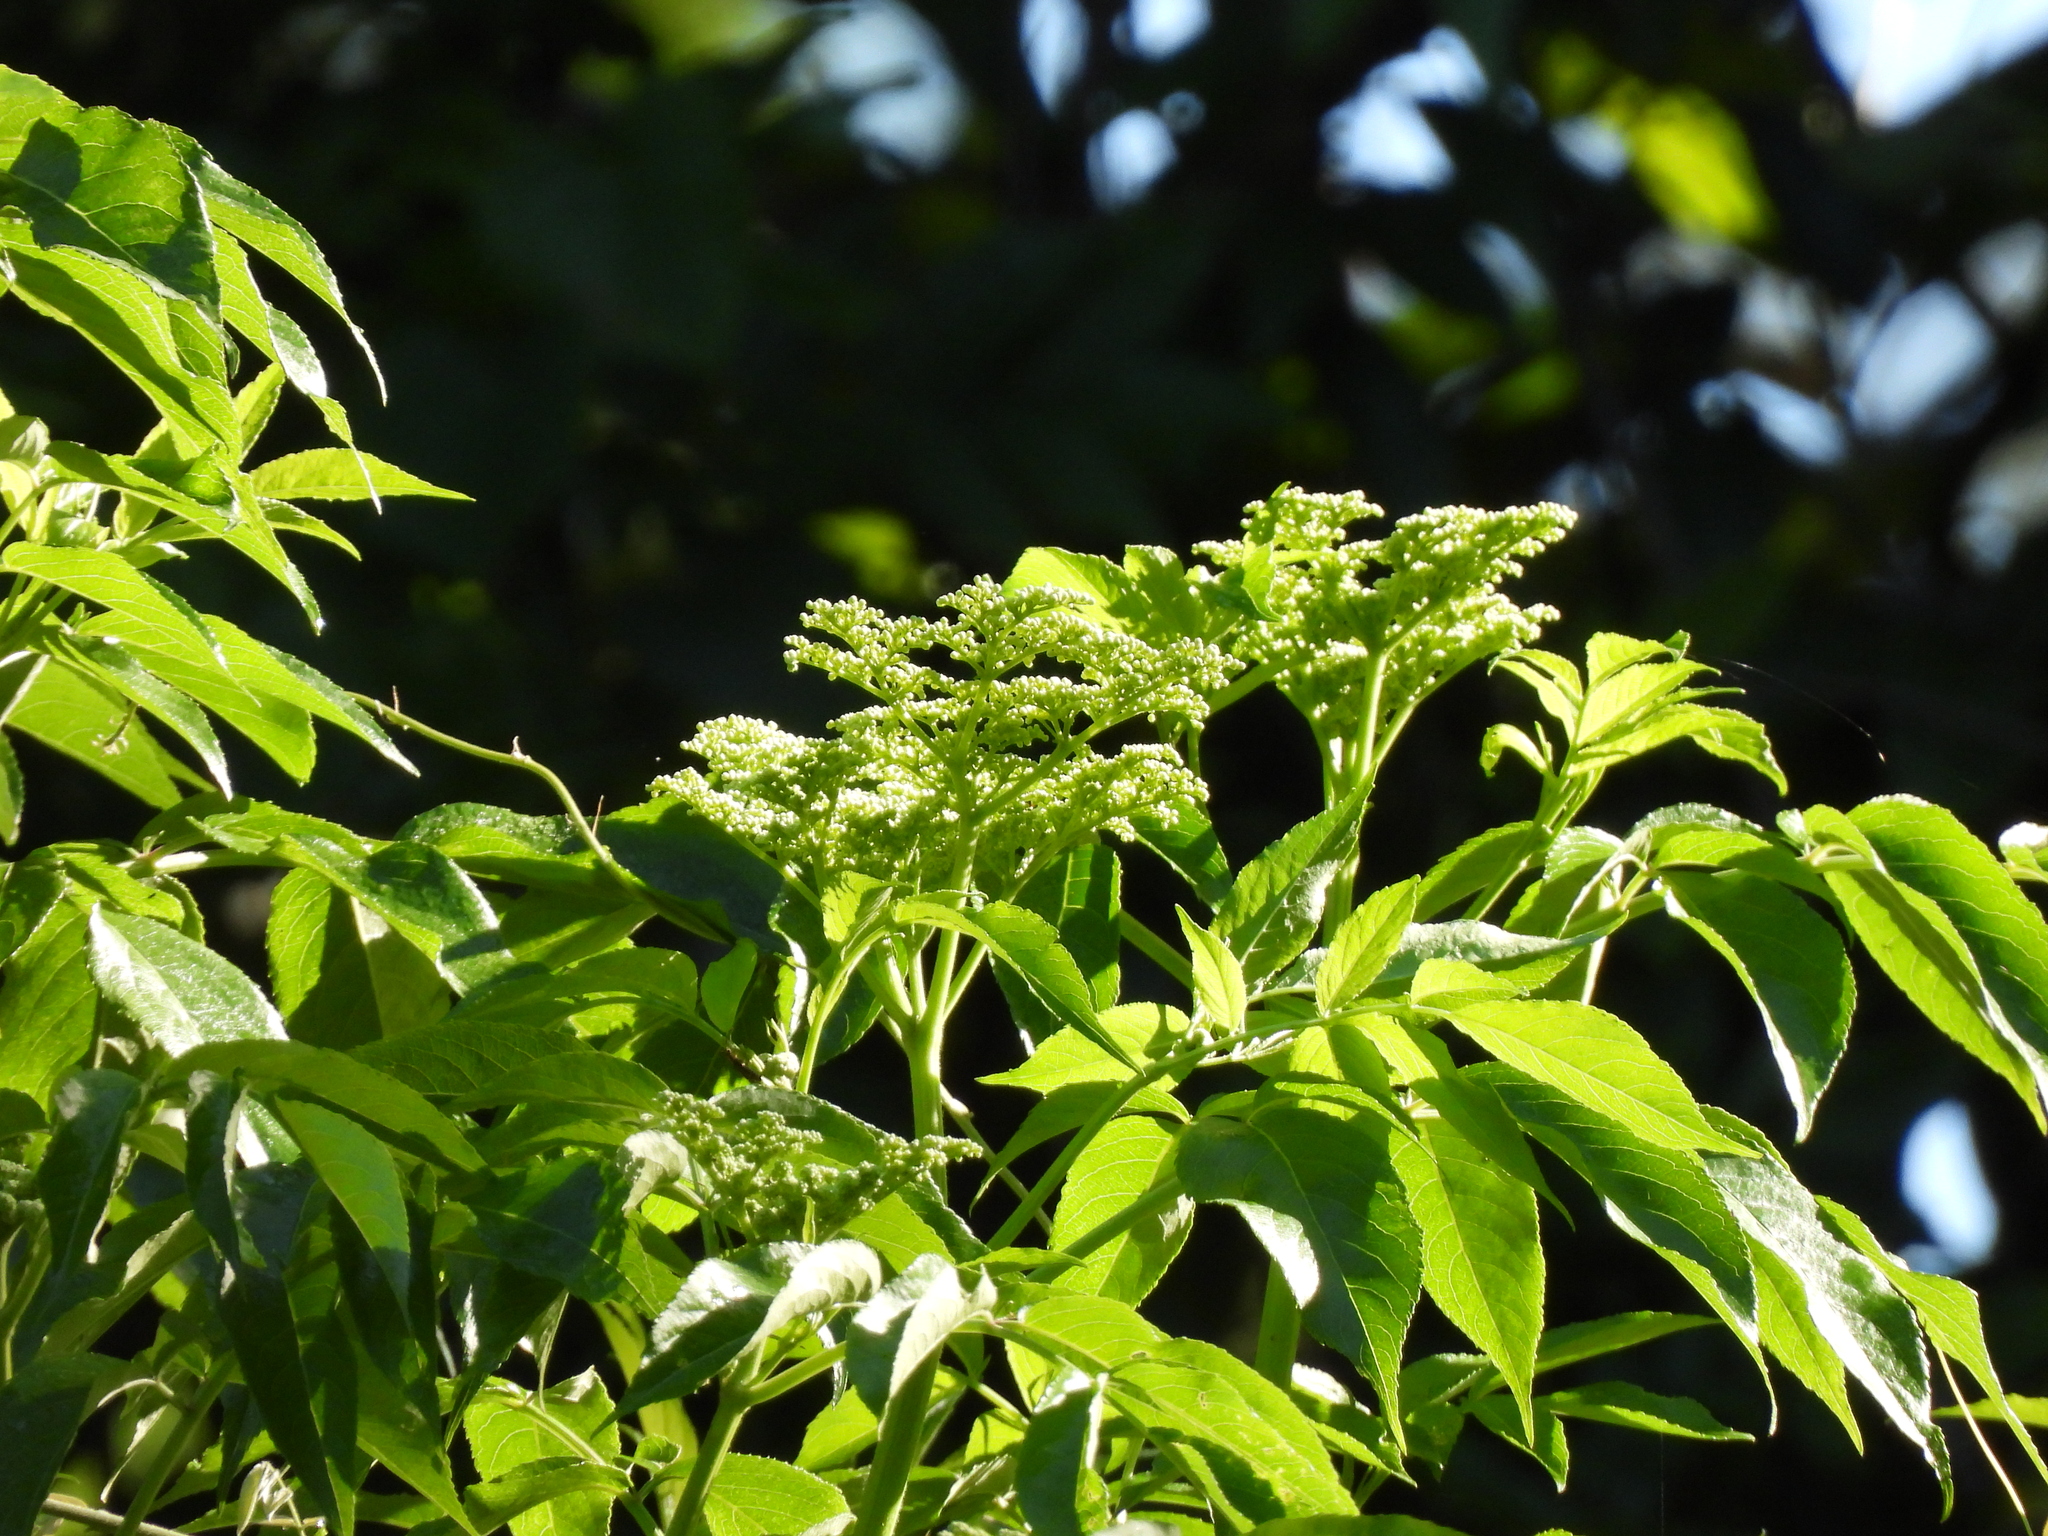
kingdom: Plantae
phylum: Tracheophyta
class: Magnoliopsida
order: Dipsacales
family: Viburnaceae
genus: Sambucus
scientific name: Sambucus canadensis
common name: American elder
